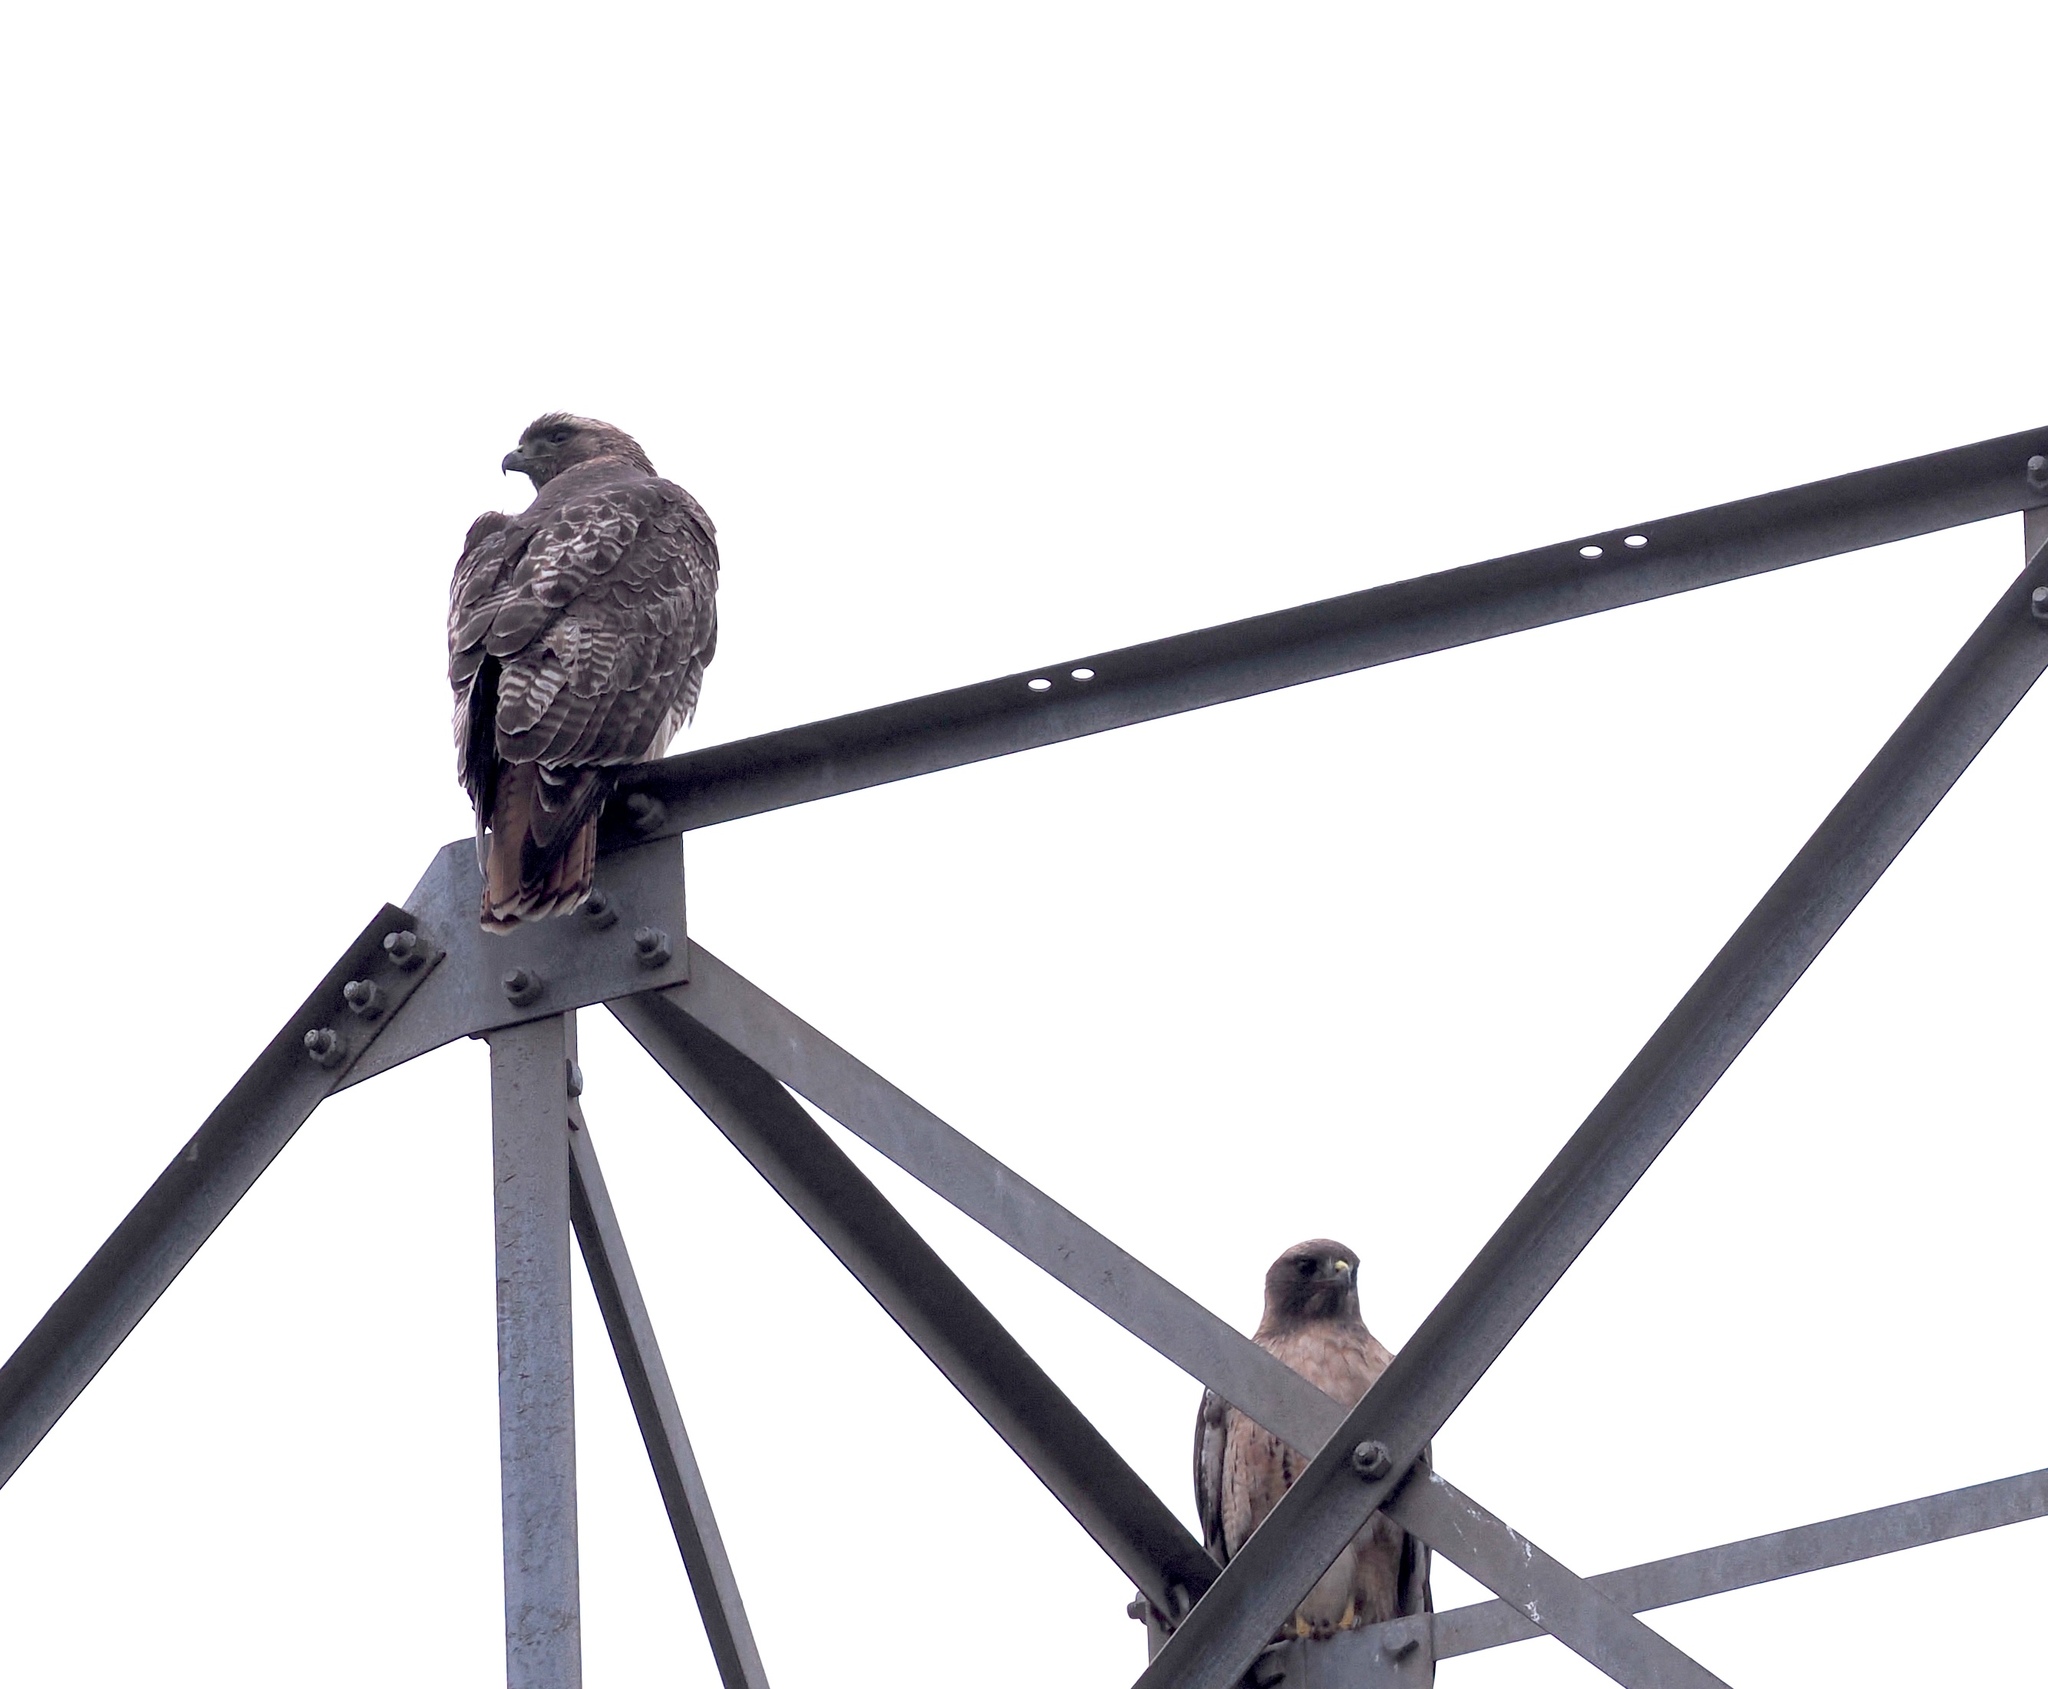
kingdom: Animalia
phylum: Chordata
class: Aves
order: Accipitriformes
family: Accipitridae
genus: Buteo
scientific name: Buteo jamaicensis
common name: Red-tailed hawk
